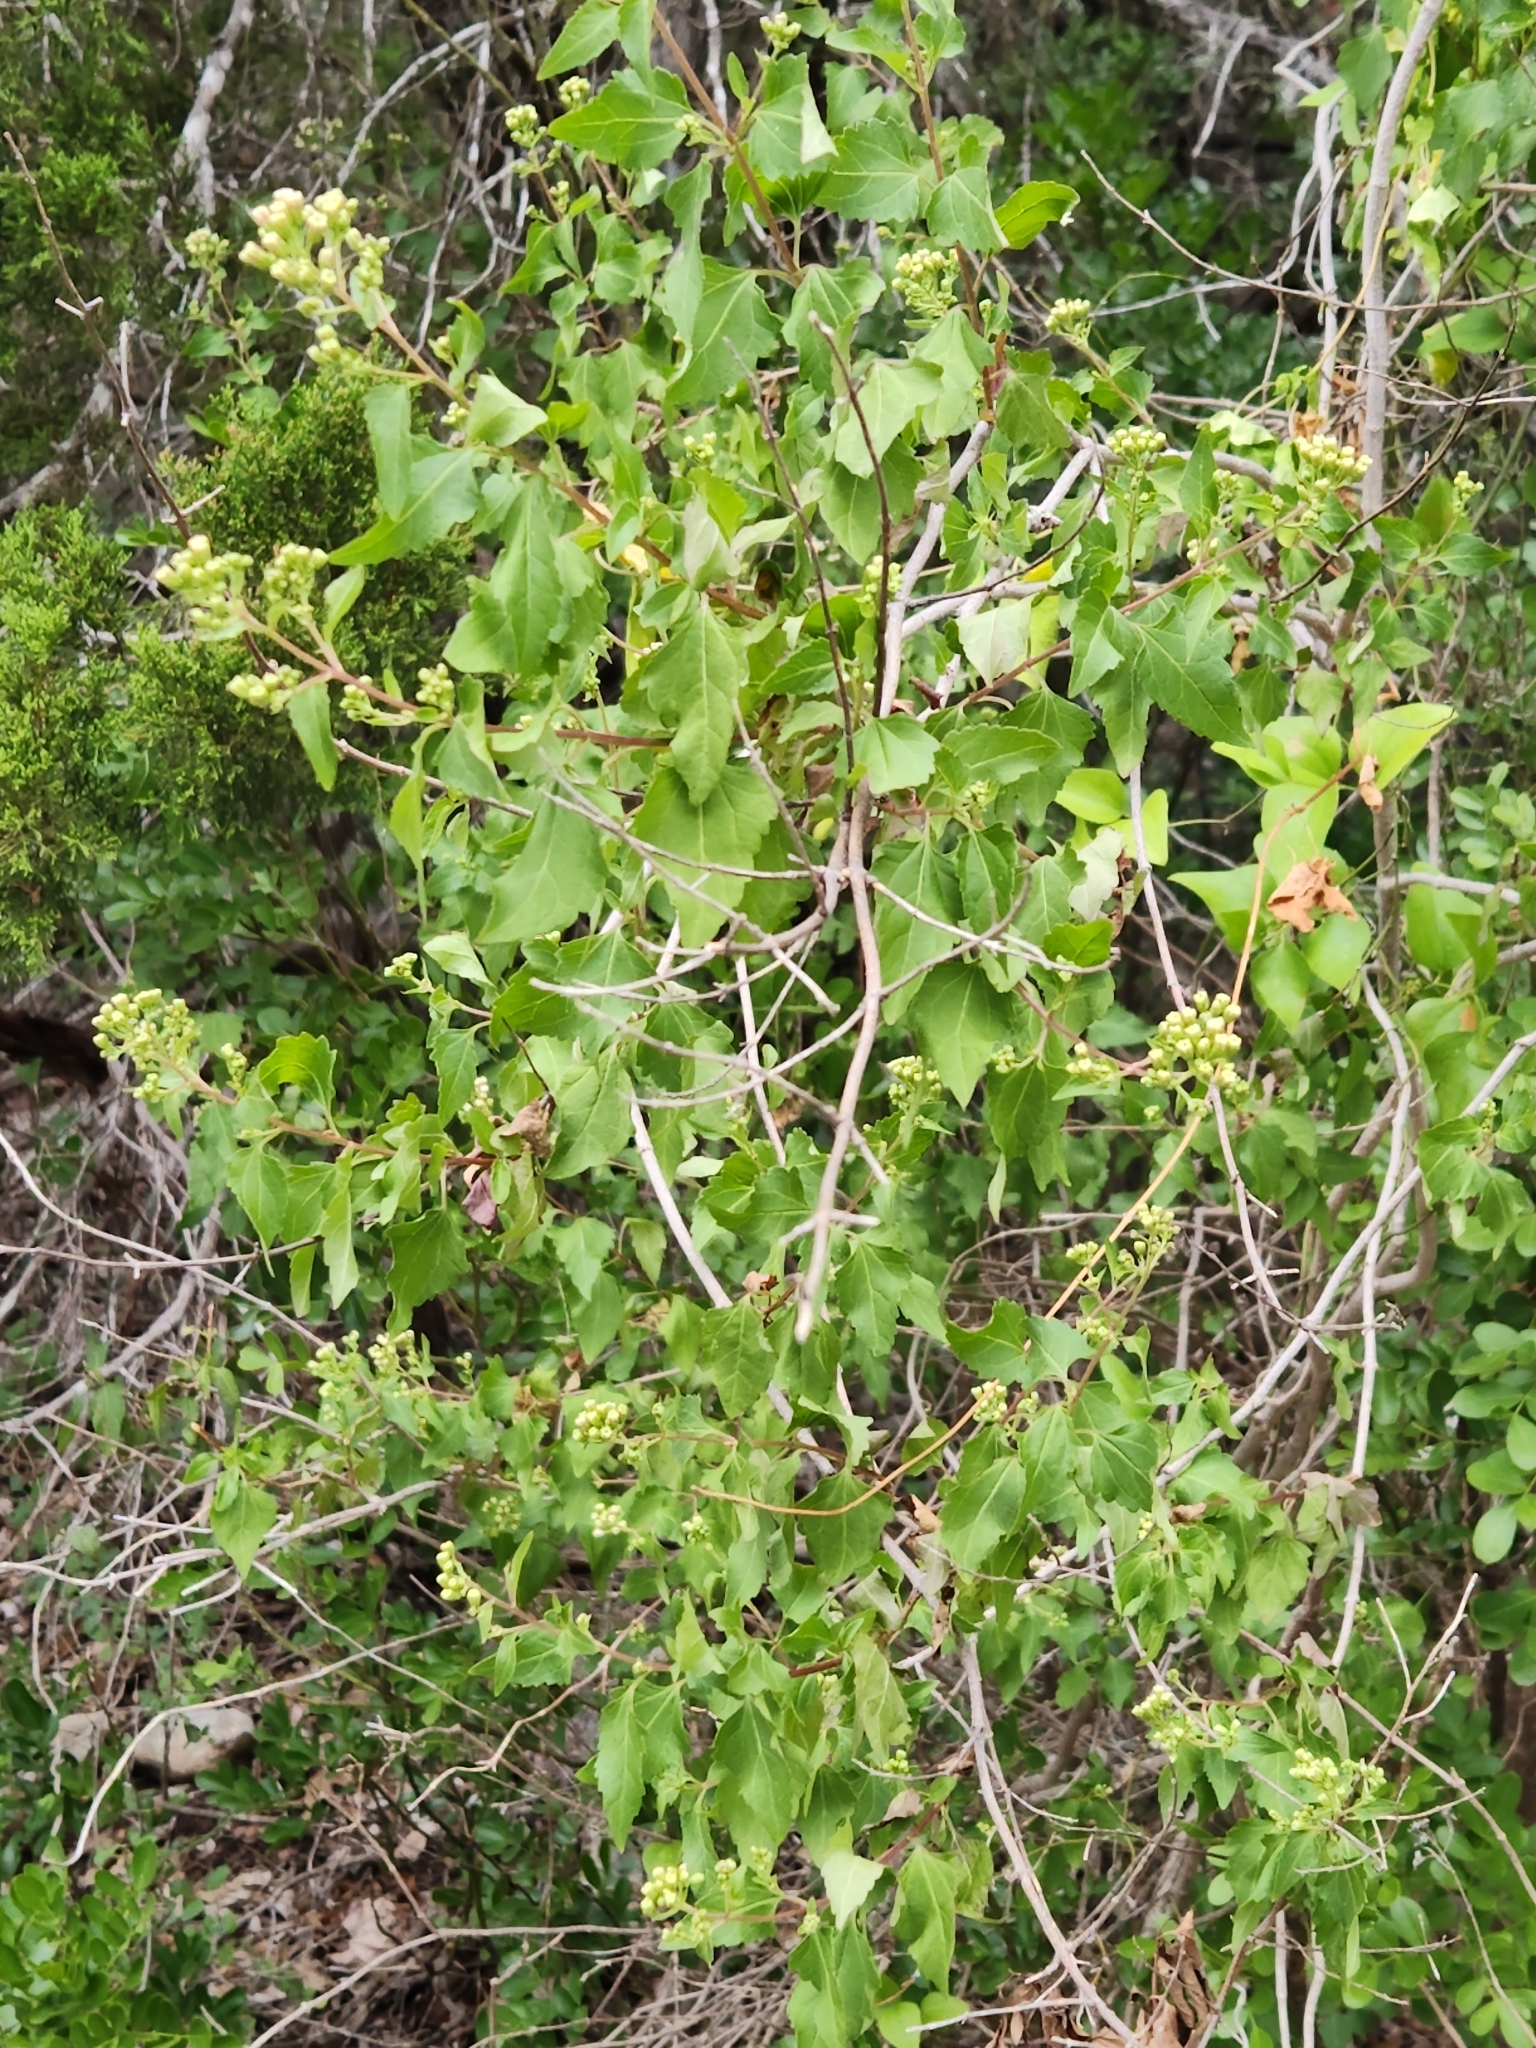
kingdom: Plantae
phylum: Tracheophyta
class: Magnoliopsida
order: Asterales
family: Asteraceae
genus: Ageratina
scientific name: Ageratina havanensis
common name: Havana snakeroot
